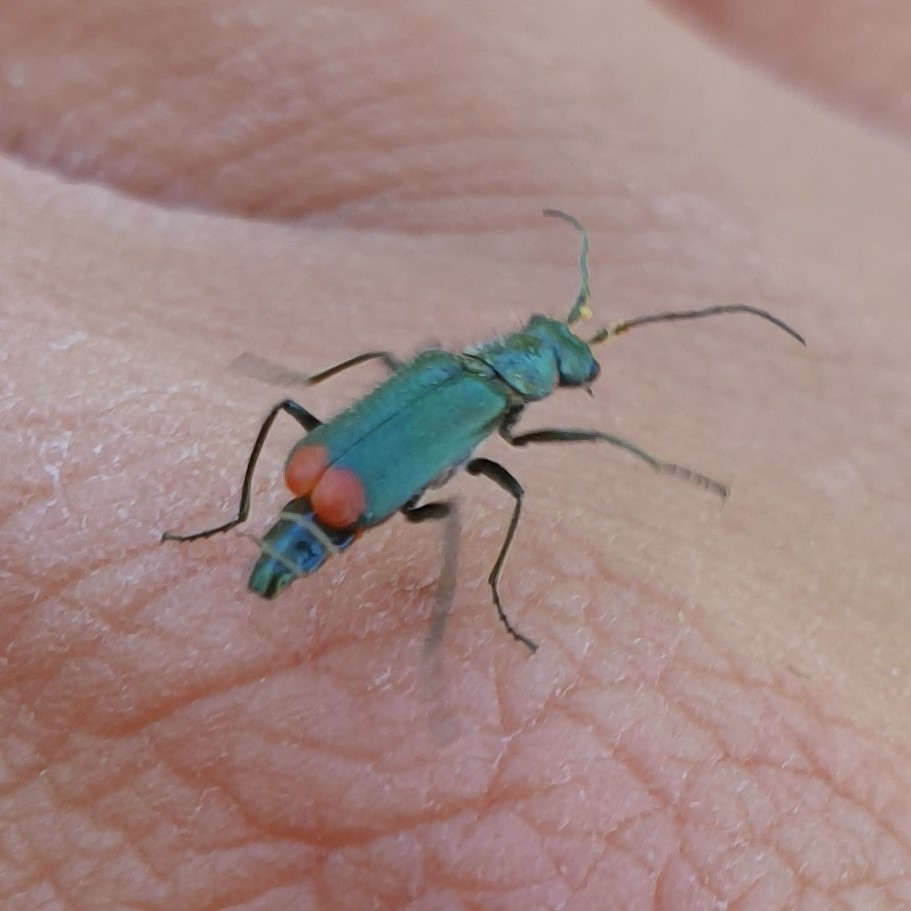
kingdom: Animalia
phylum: Arthropoda
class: Insecta
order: Coleoptera
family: Melyridae
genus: Malachius
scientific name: Malachius bipustulatus
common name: Malachite beetle
